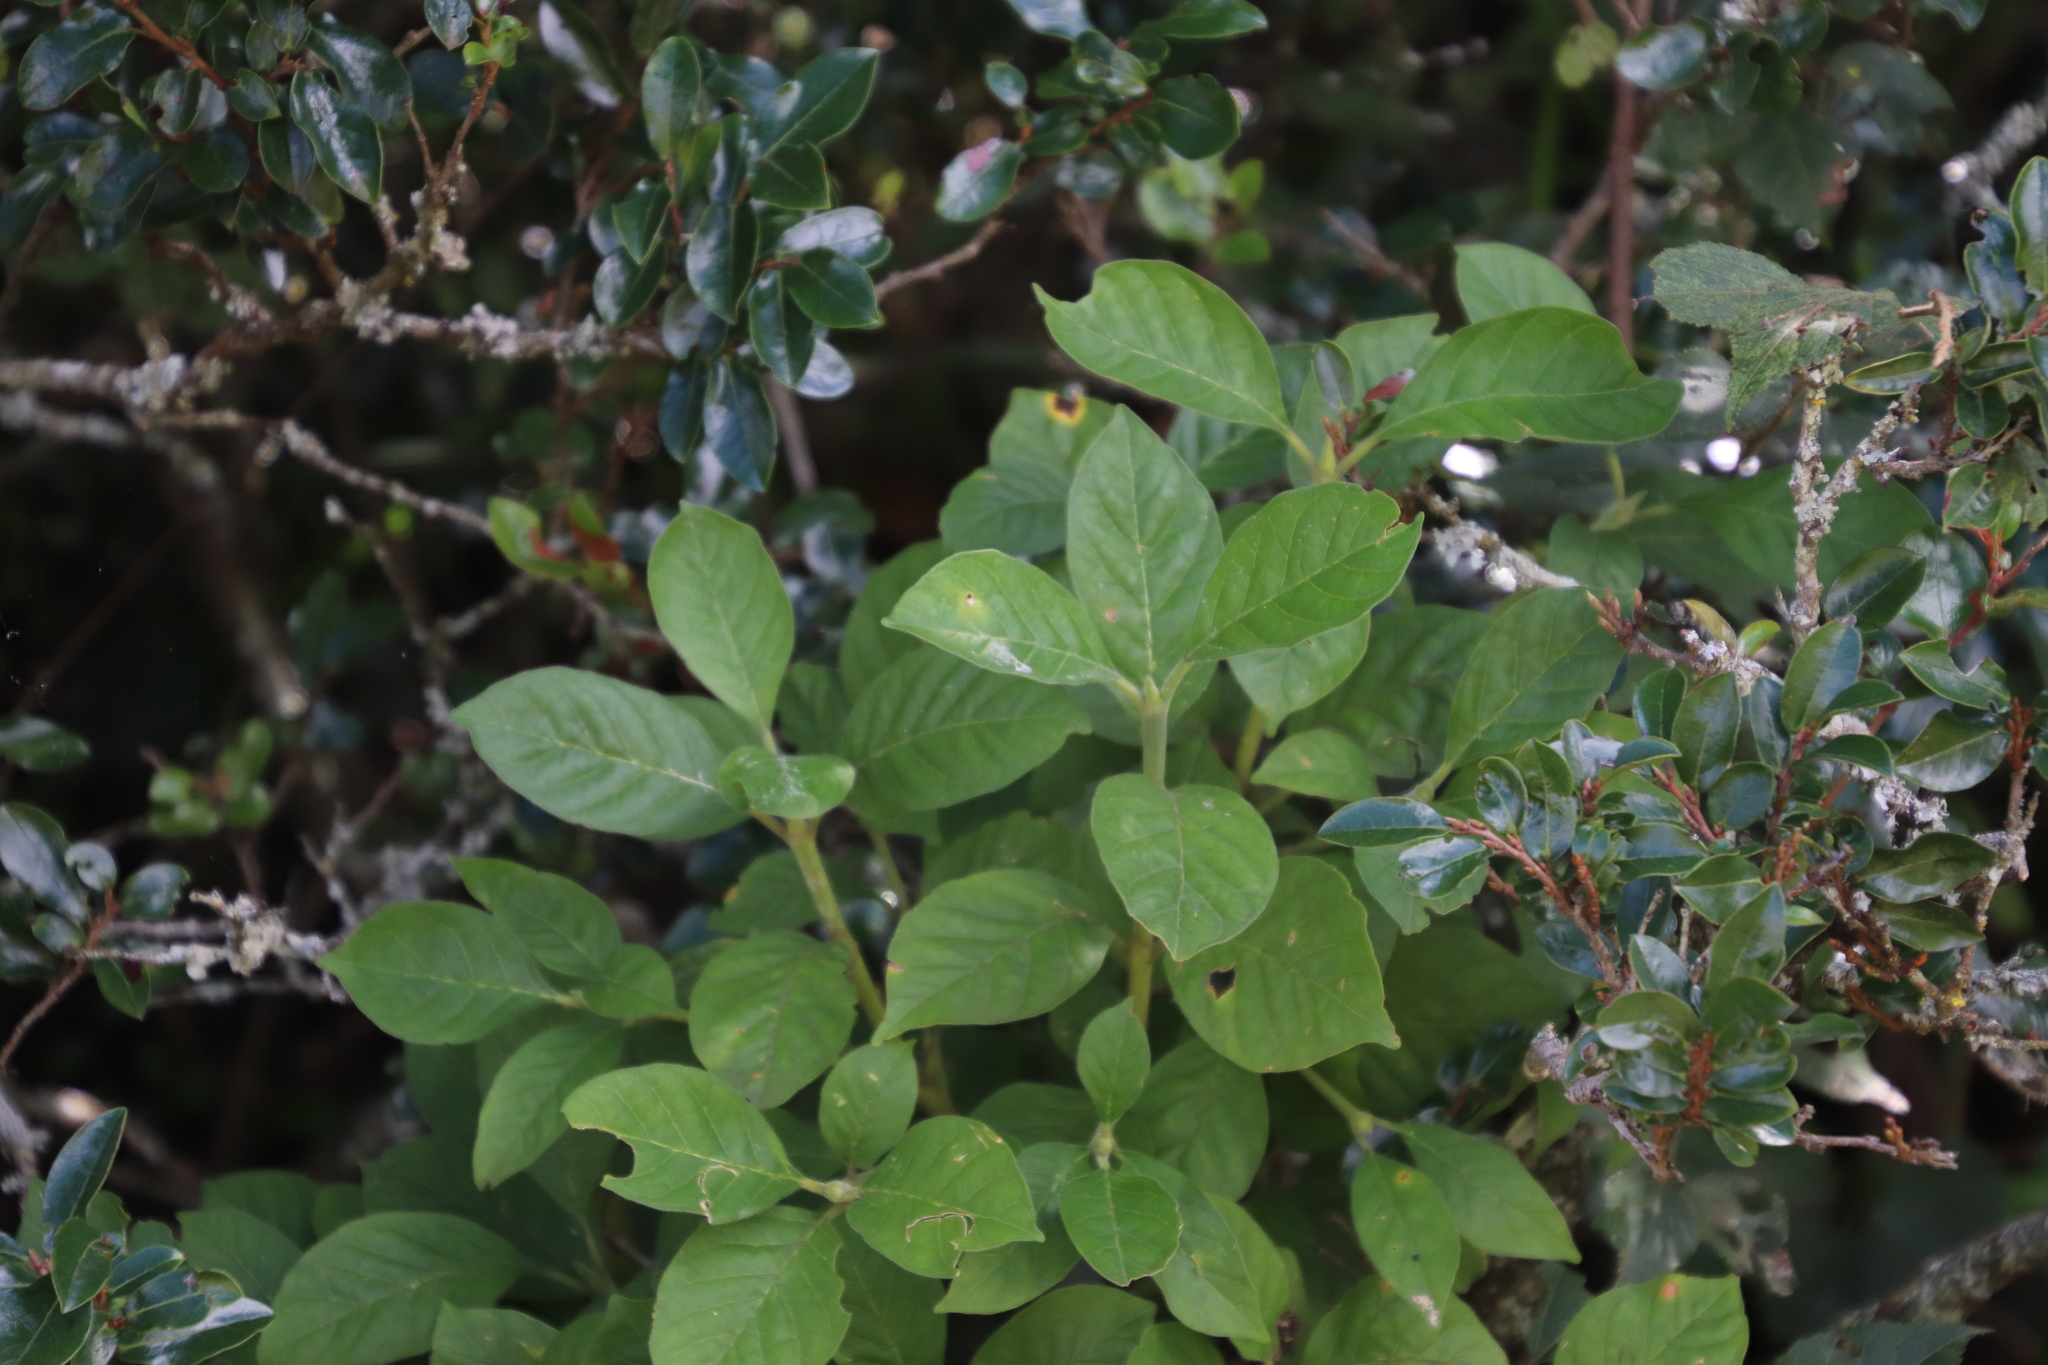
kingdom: Plantae
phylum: Tracheophyta
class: Magnoliopsida
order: Gentianales
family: Rubiaceae
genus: Pavetta
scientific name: Pavetta cooperi
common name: Pompom brides-bush
